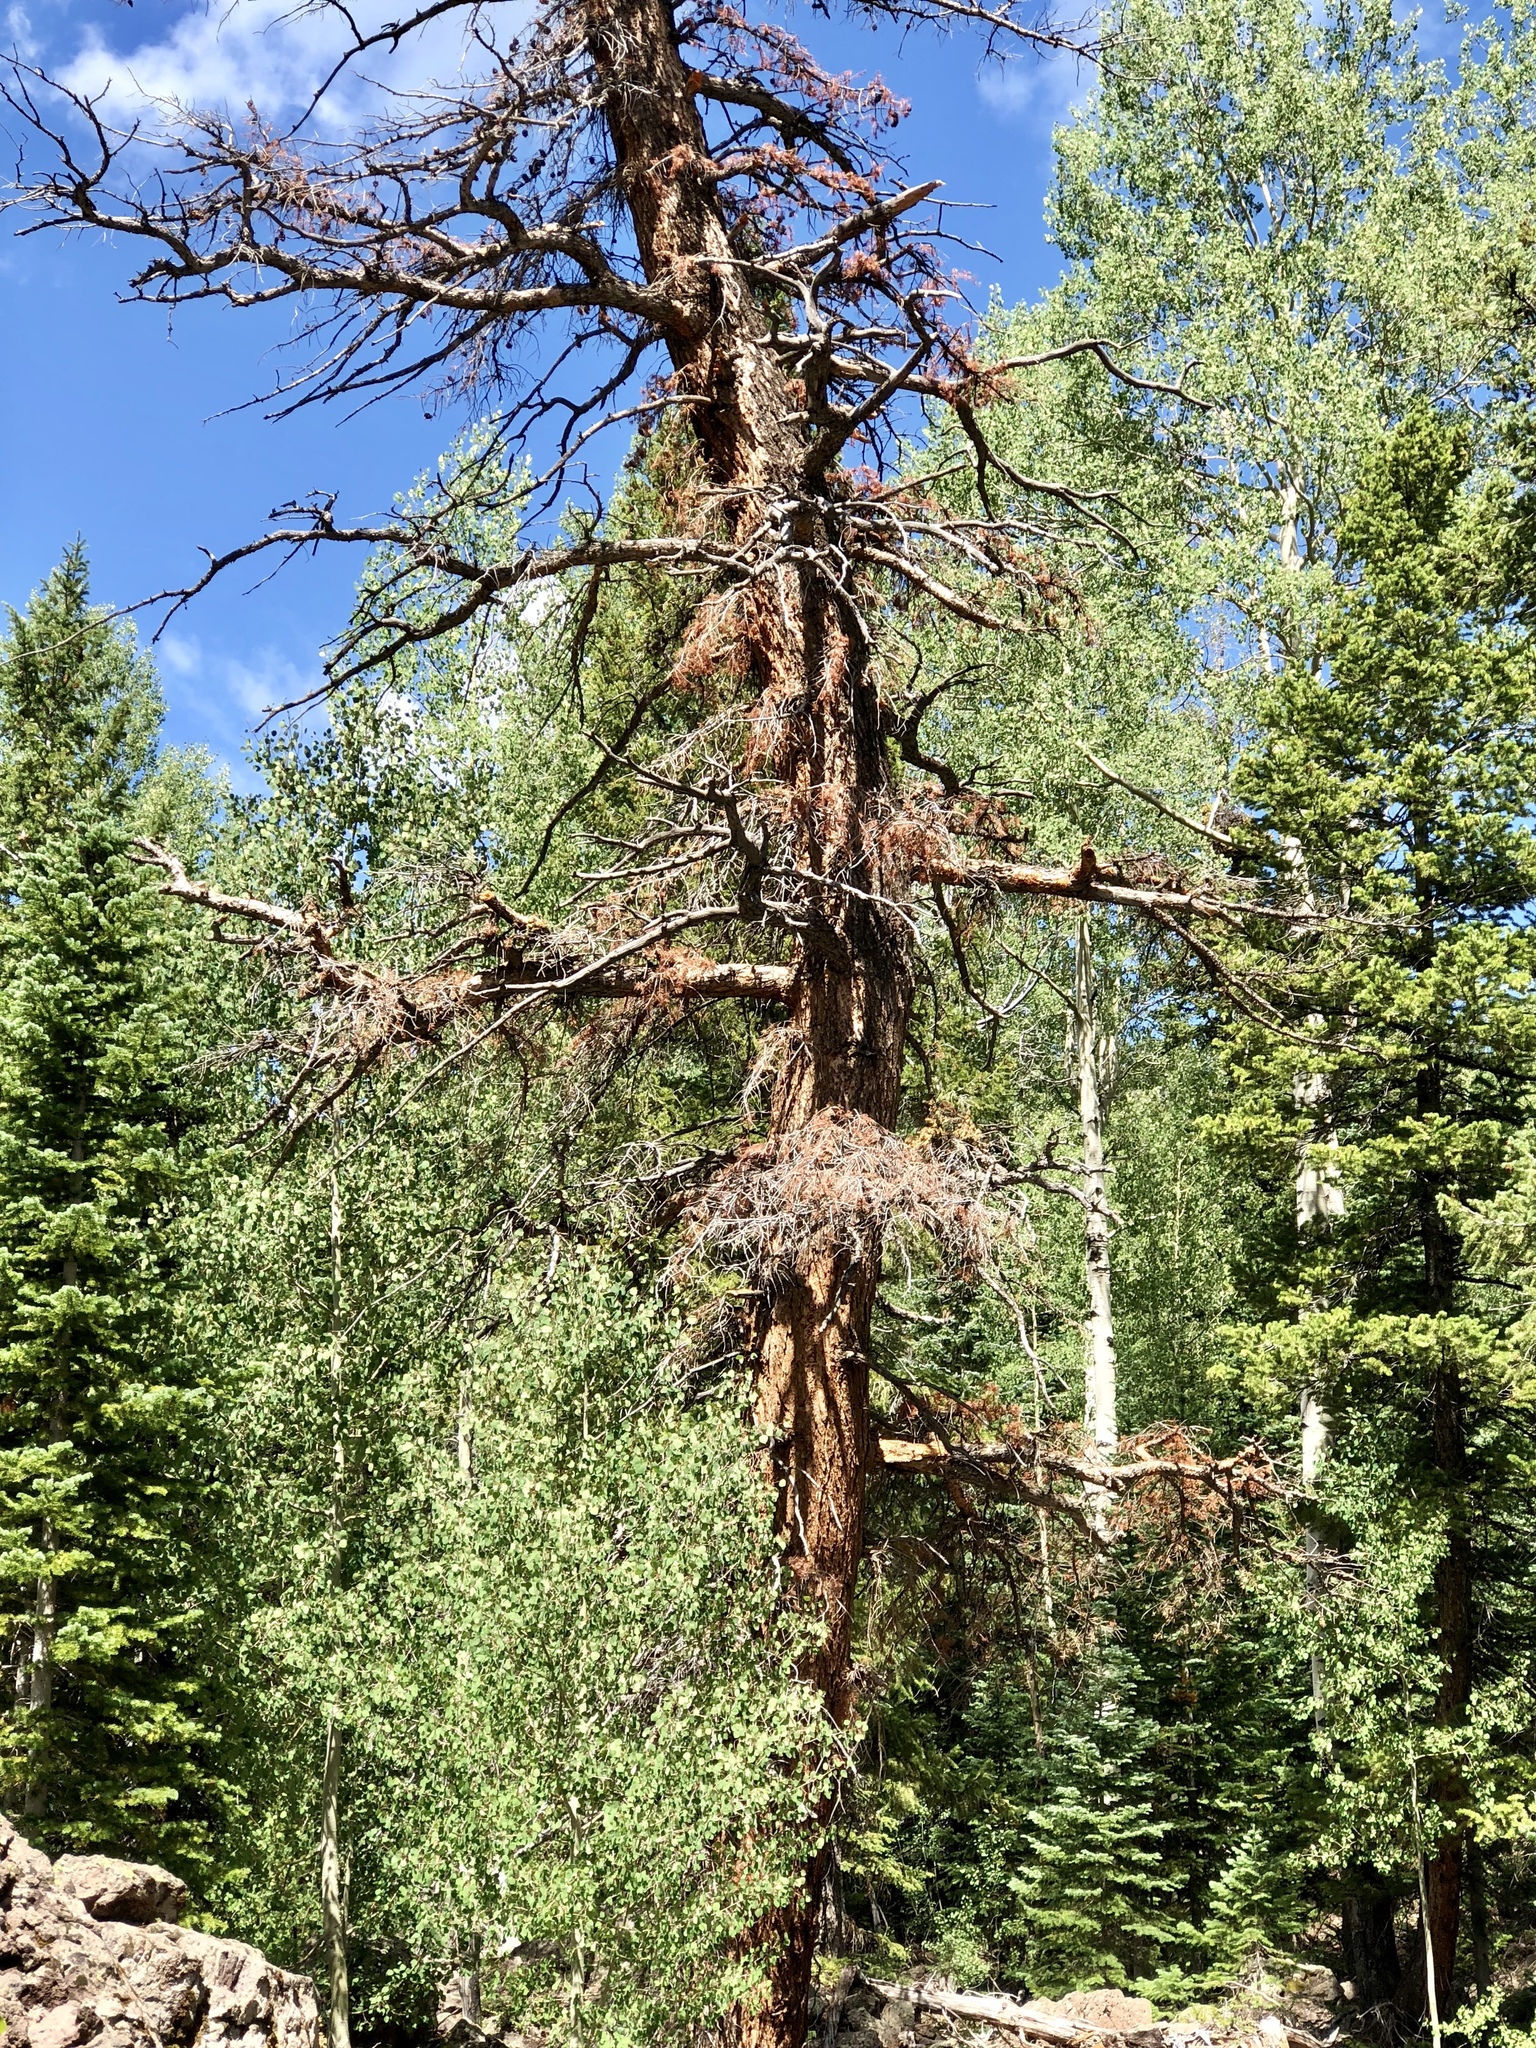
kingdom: Plantae
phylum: Tracheophyta
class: Pinopsida
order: Pinales
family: Pinaceae
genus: Pseudotsuga
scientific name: Pseudotsuga menziesii
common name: Douglas fir
